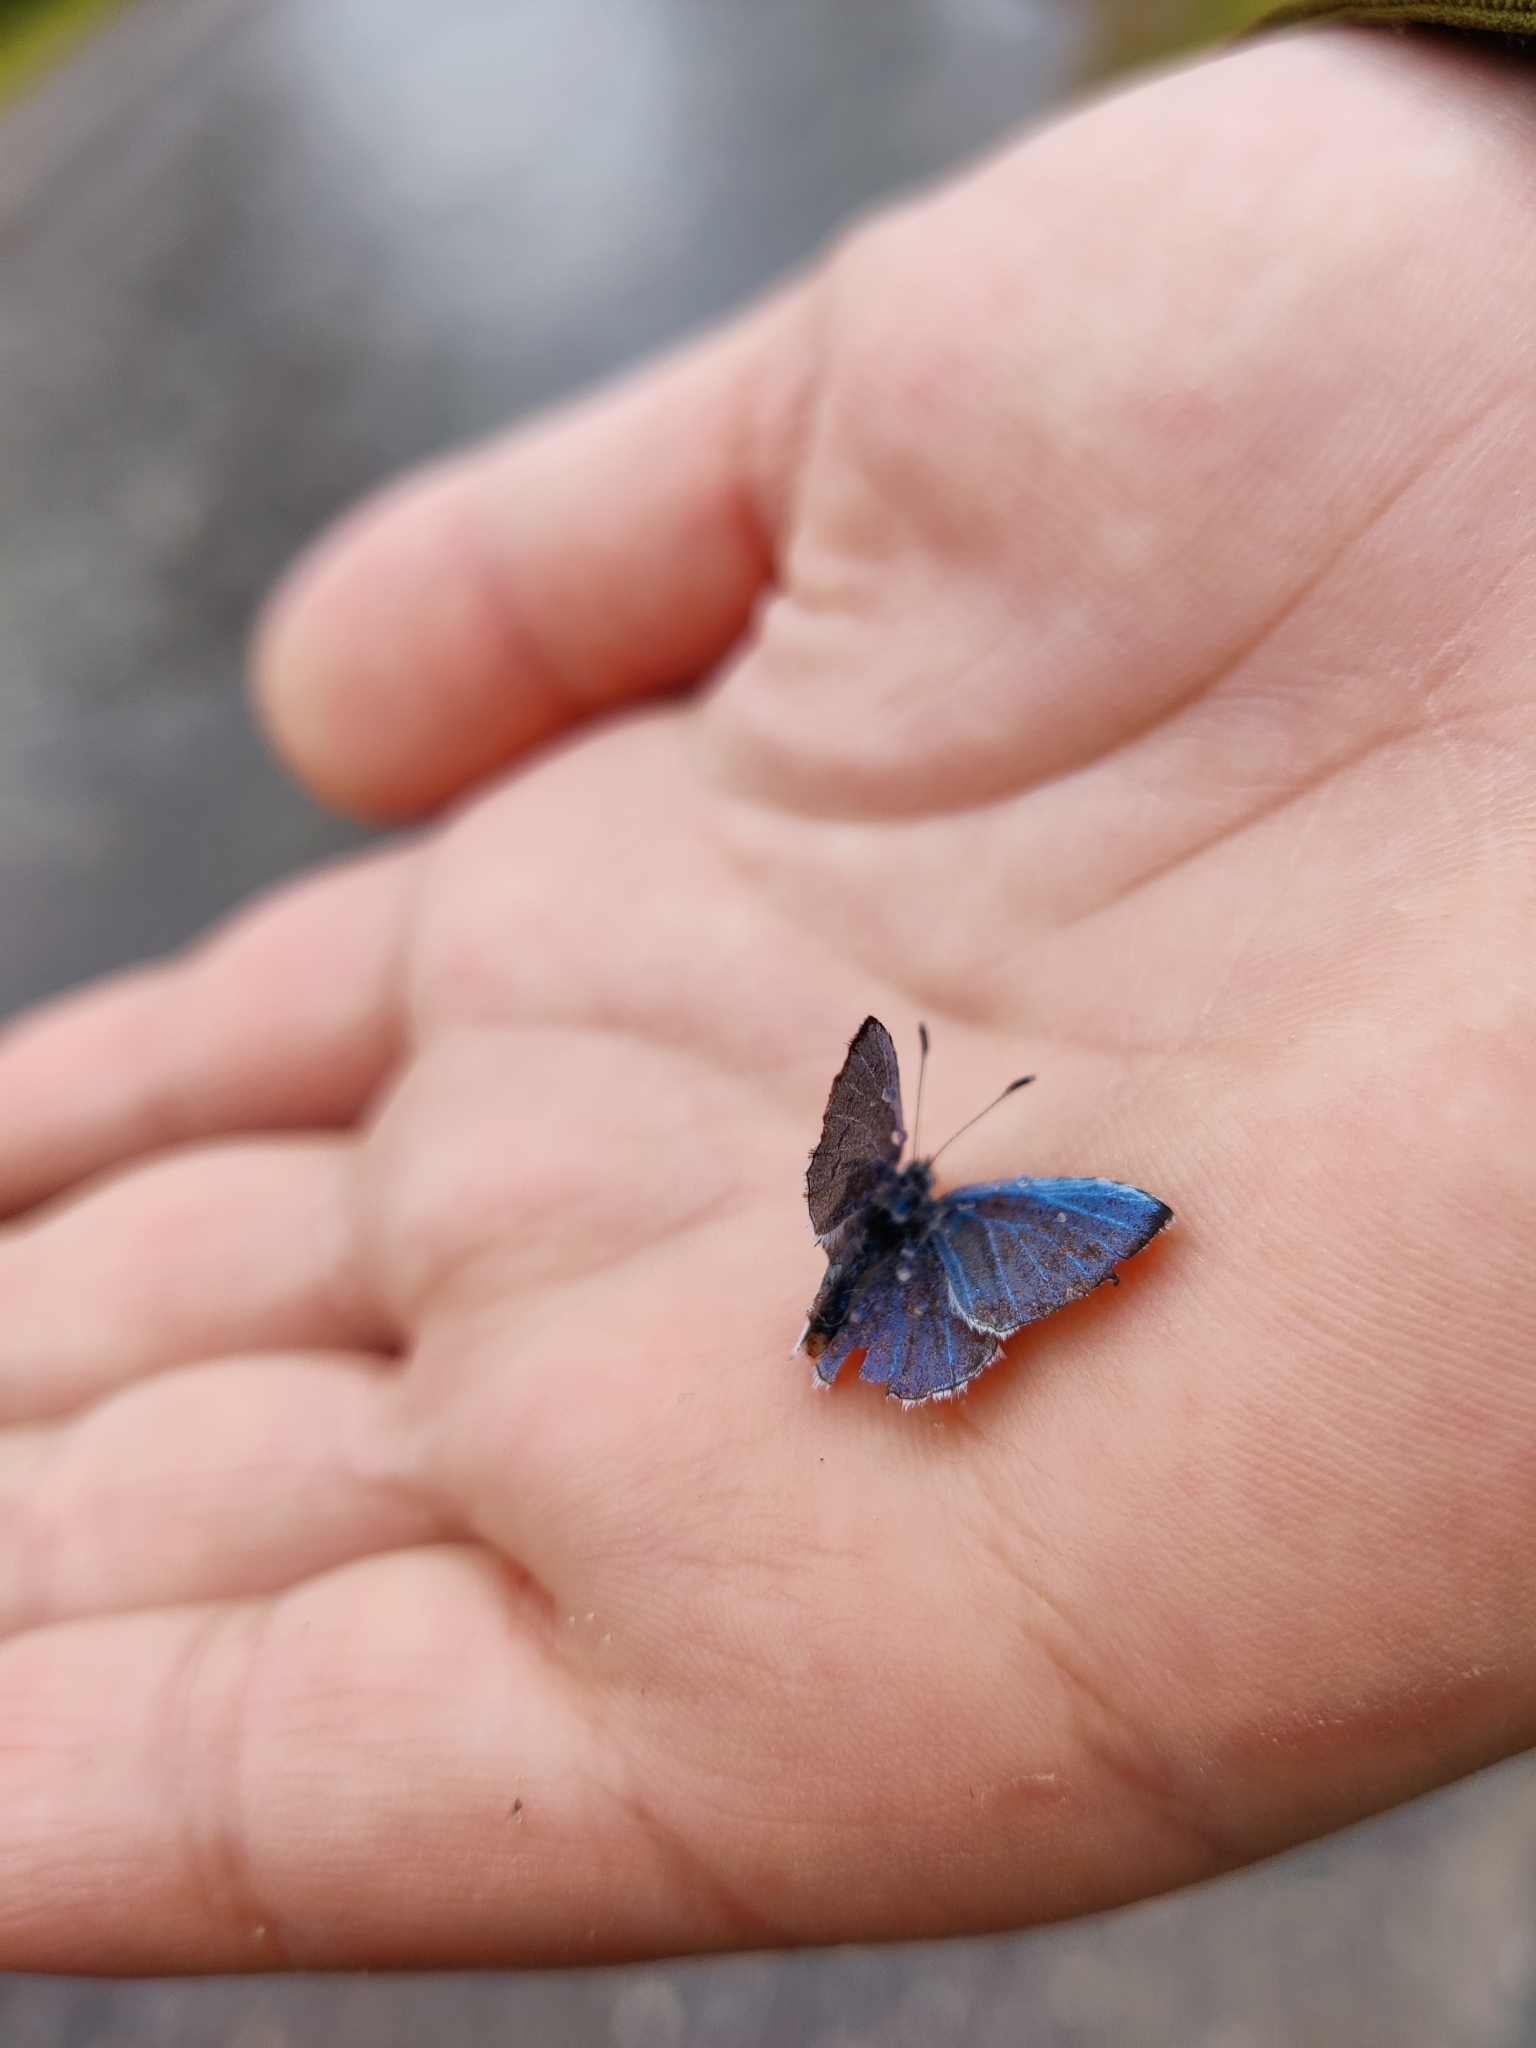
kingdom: Animalia
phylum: Arthropoda
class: Insecta
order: Lepidoptera
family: Lycaenidae
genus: Celastrina
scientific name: Celastrina argiolus
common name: Holly blue
